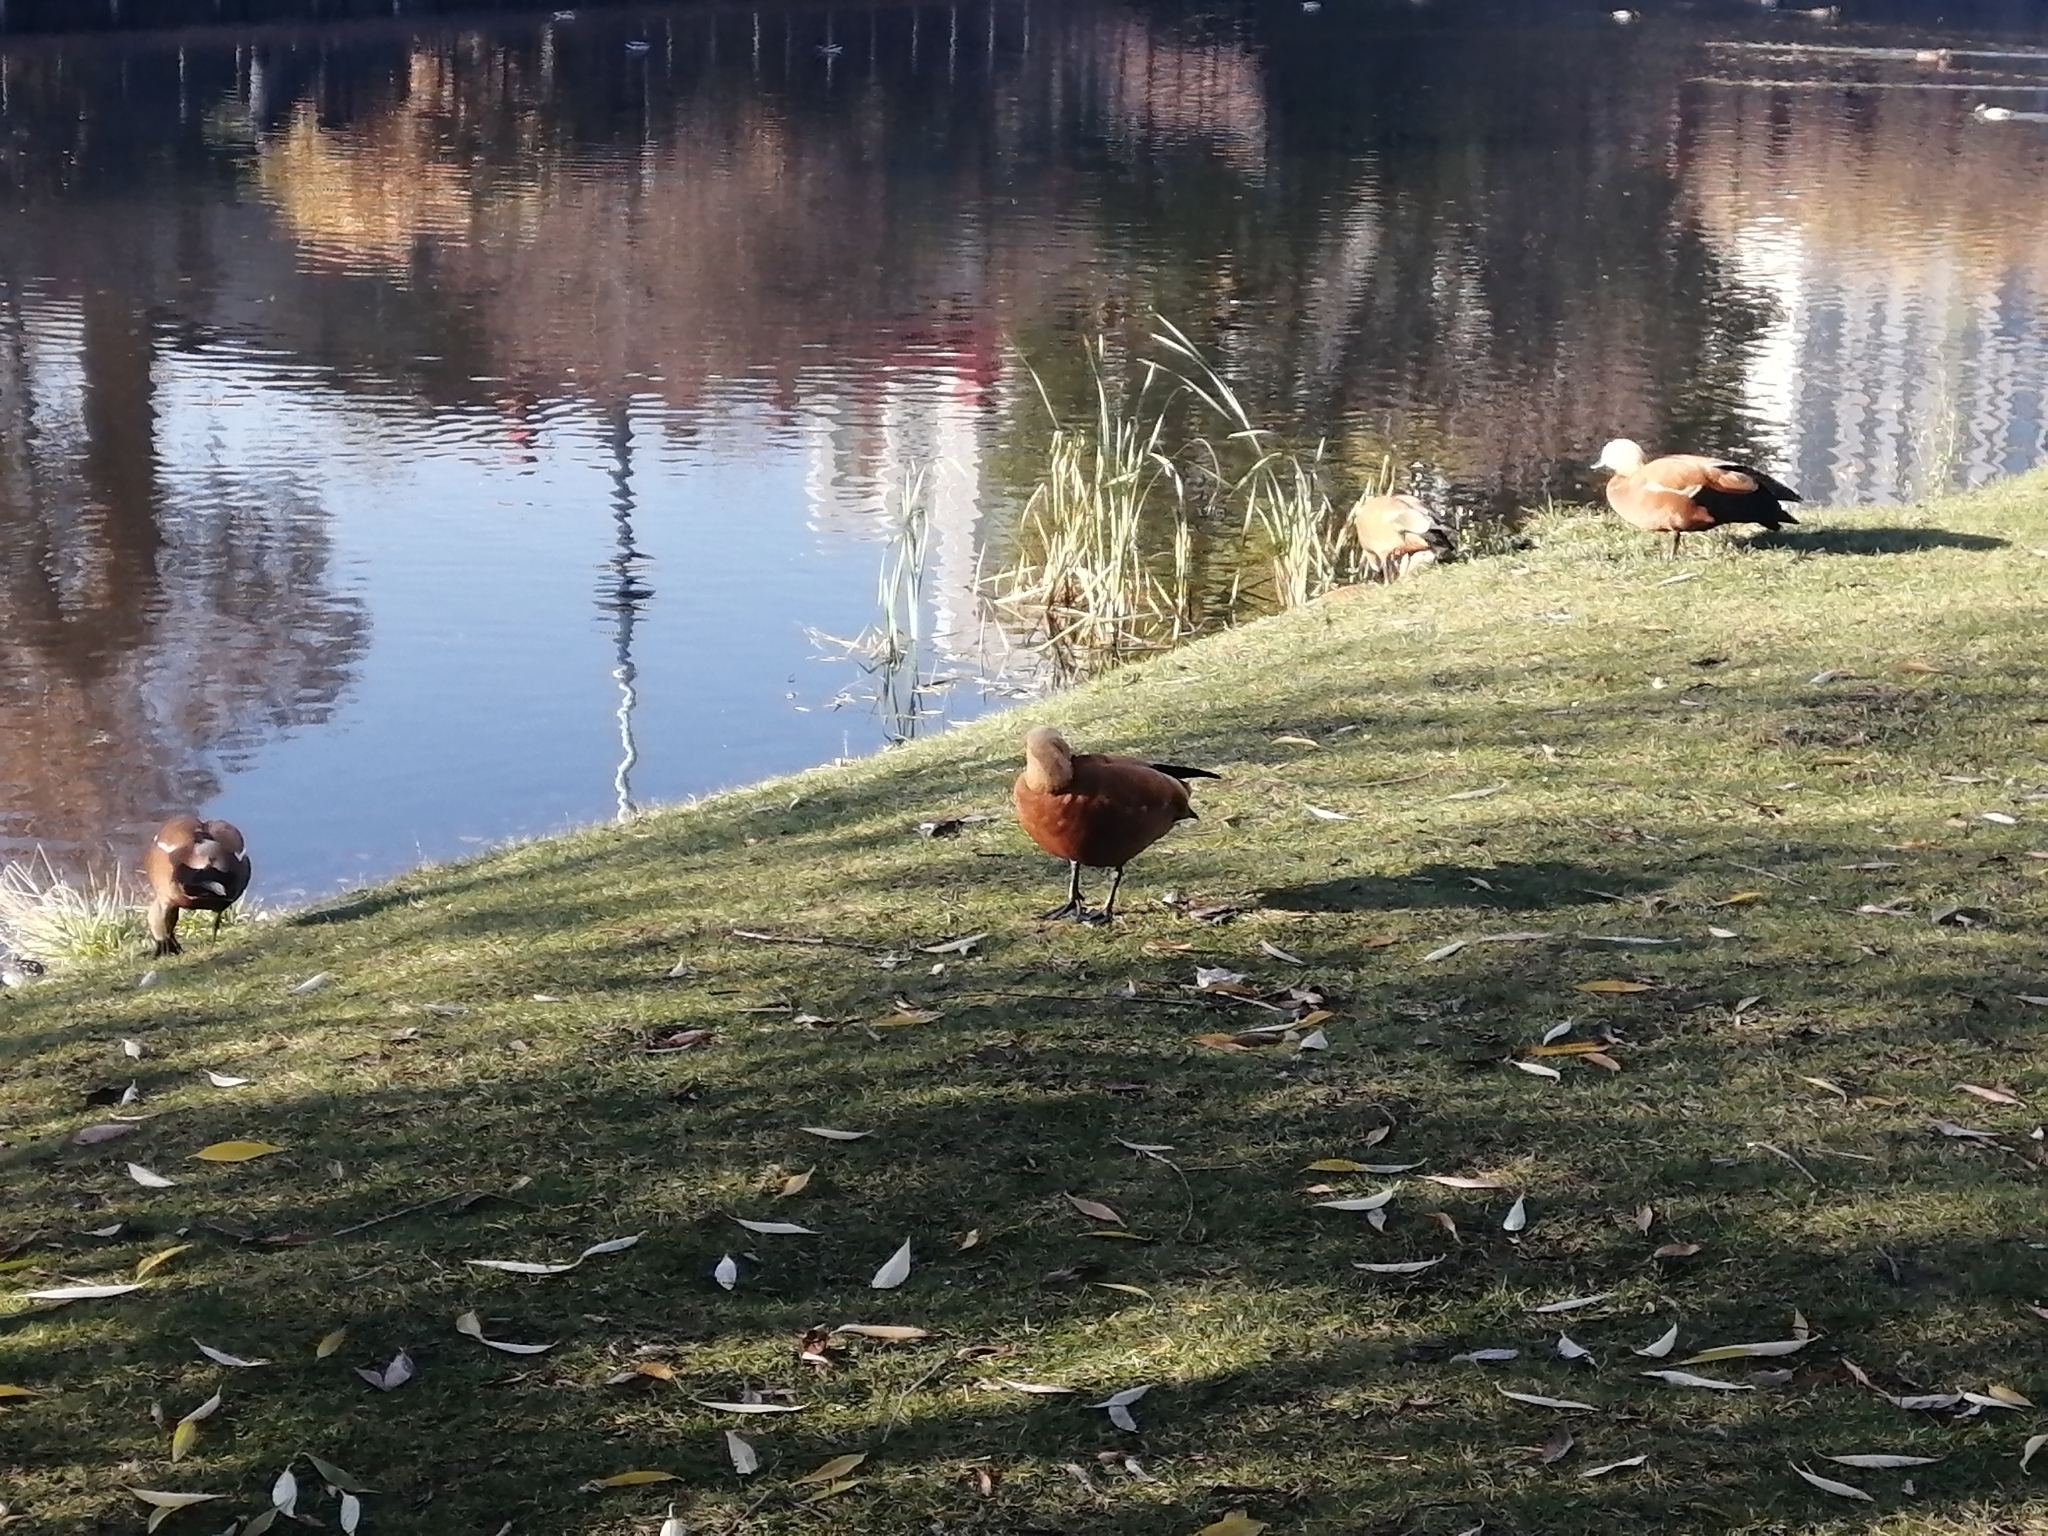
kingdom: Animalia
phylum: Chordata
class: Aves
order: Anseriformes
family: Anatidae
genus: Tadorna
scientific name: Tadorna ferruginea
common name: Ruddy shelduck
